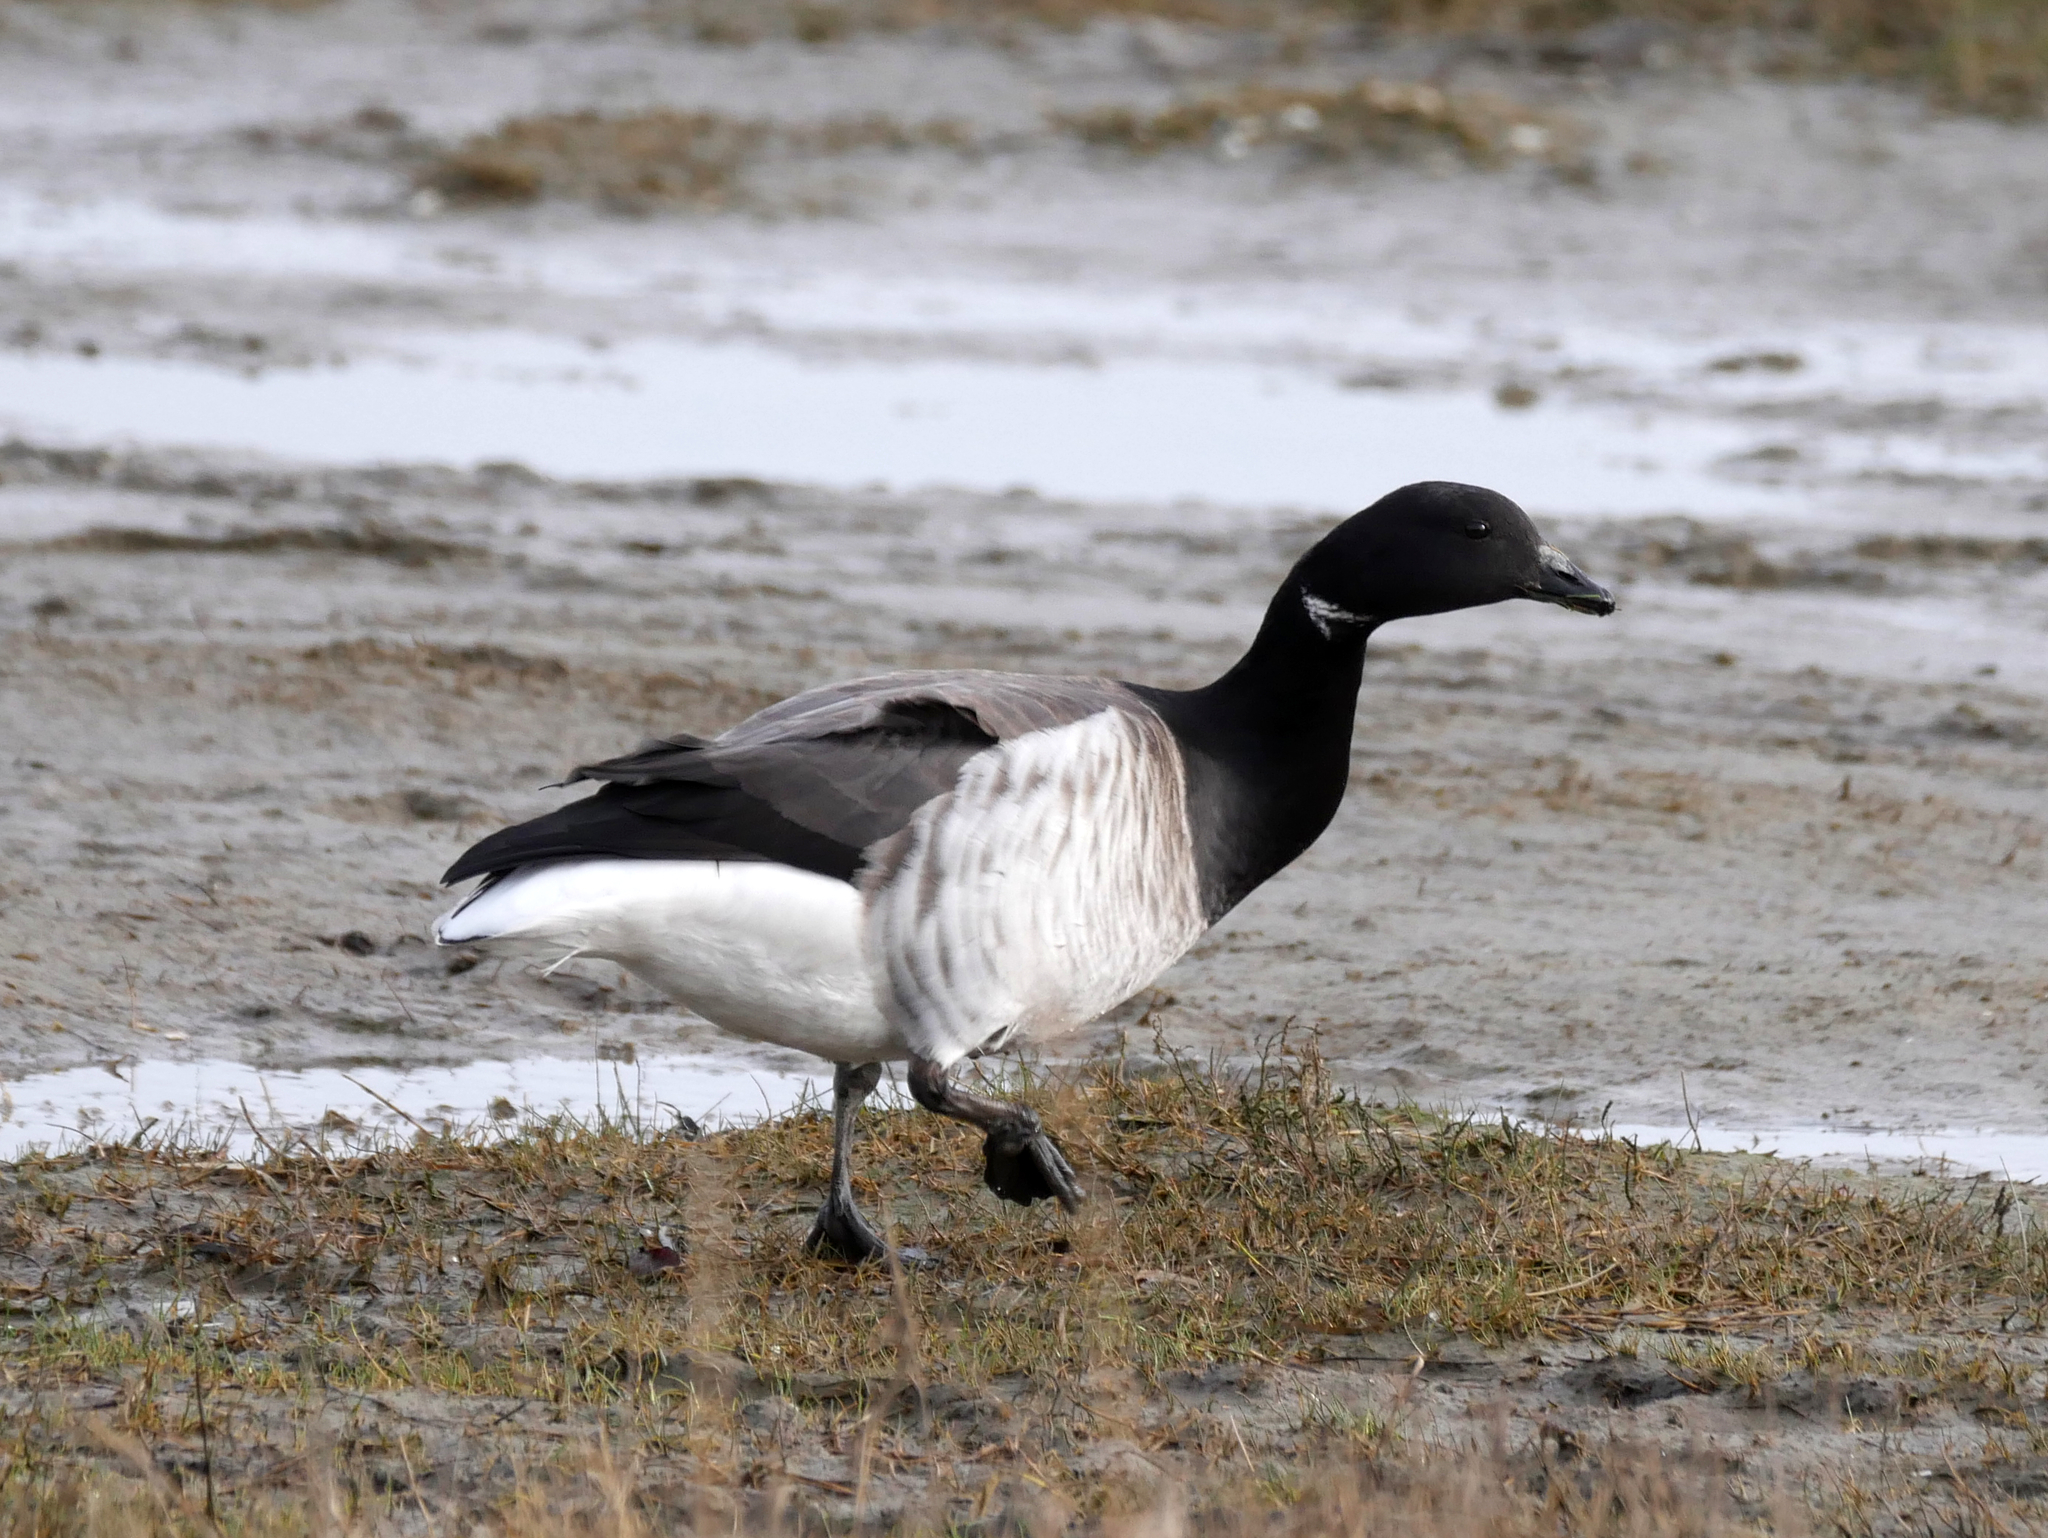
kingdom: Animalia
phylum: Chordata
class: Aves
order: Anseriformes
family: Anatidae
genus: Branta
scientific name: Branta bernicla
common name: Brant goose
